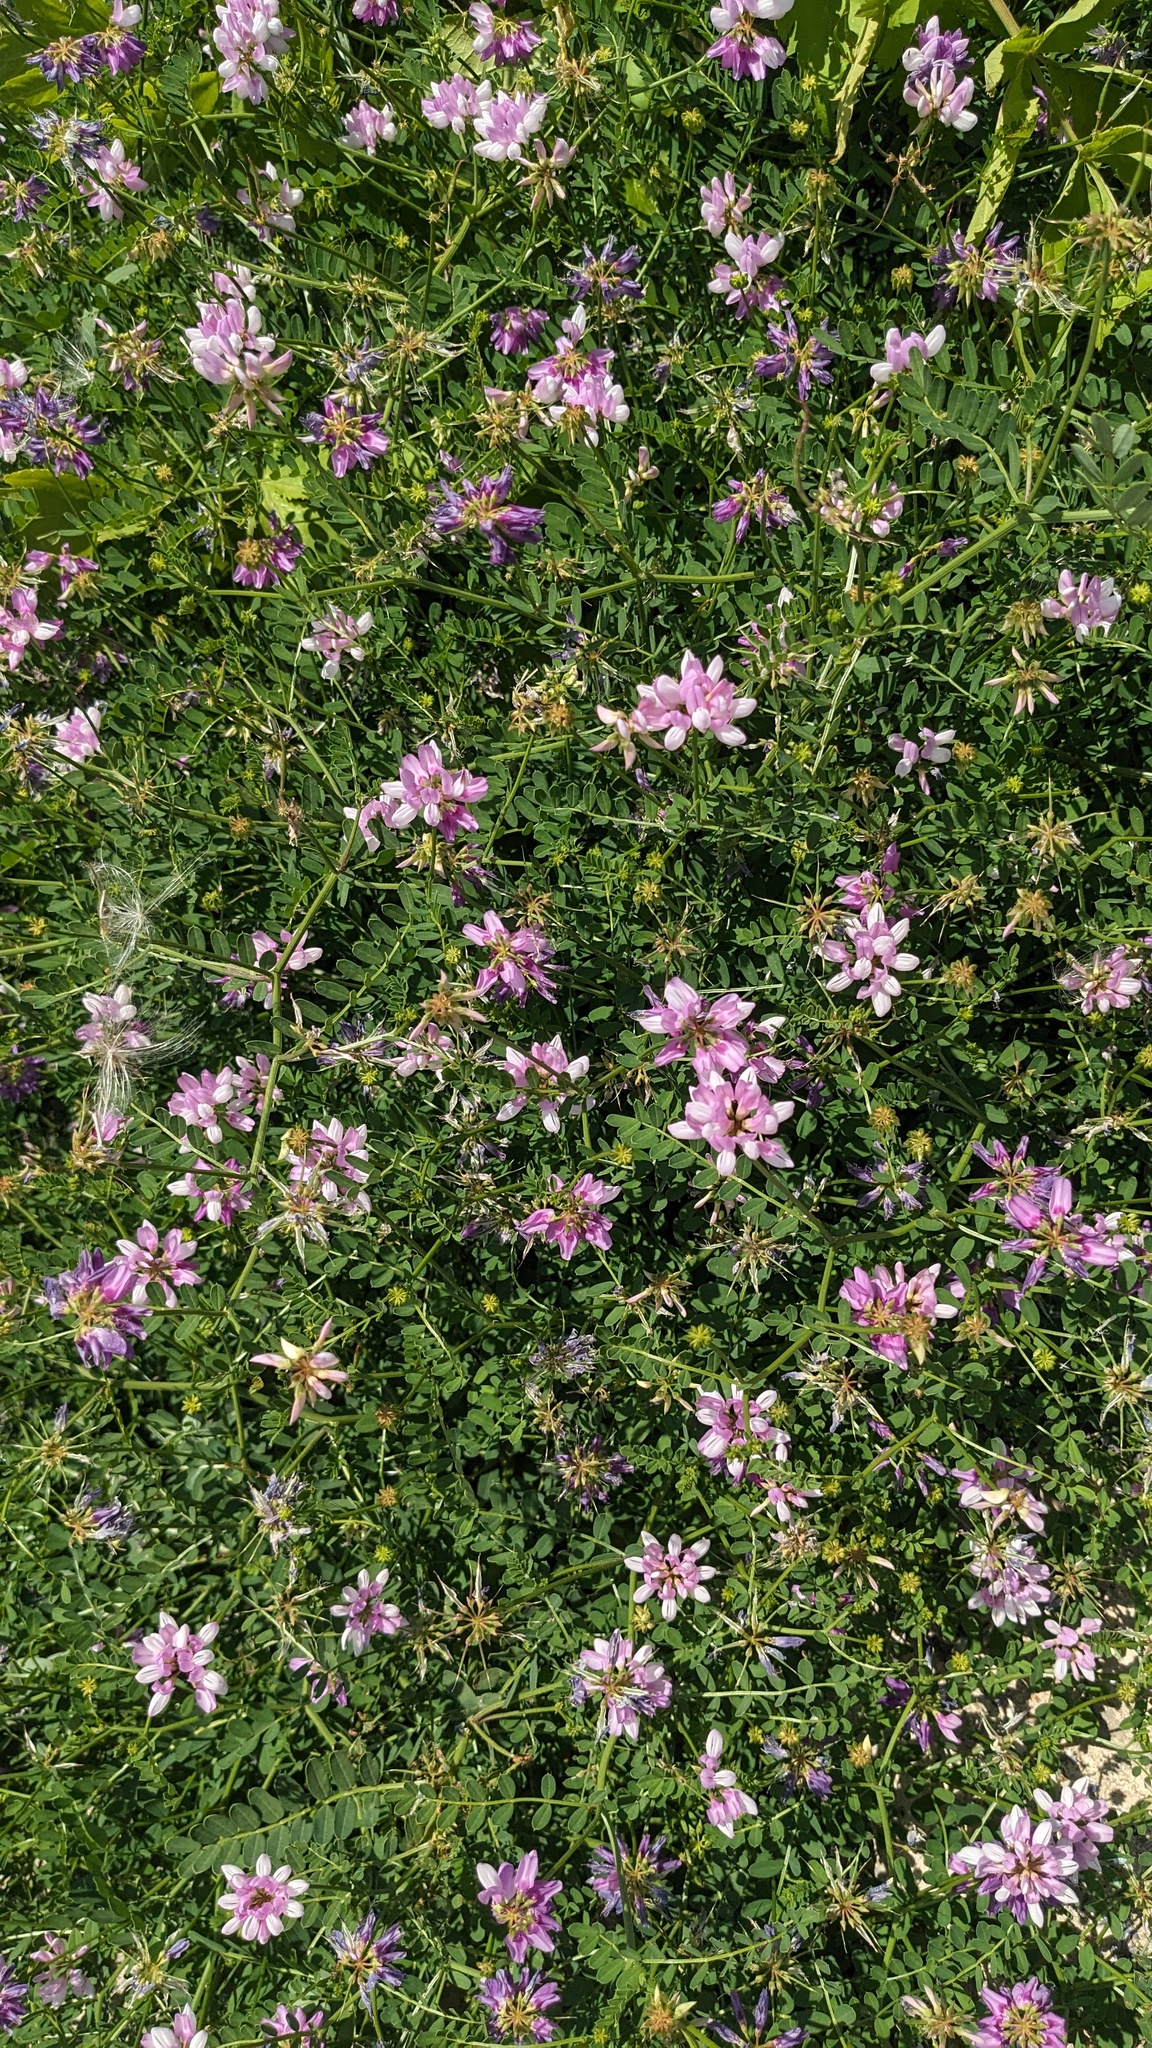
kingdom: Plantae
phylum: Tracheophyta
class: Magnoliopsida
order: Fabales
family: Fabaceae
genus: Coronilla
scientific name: Coronilla varia
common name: Crownvetch
